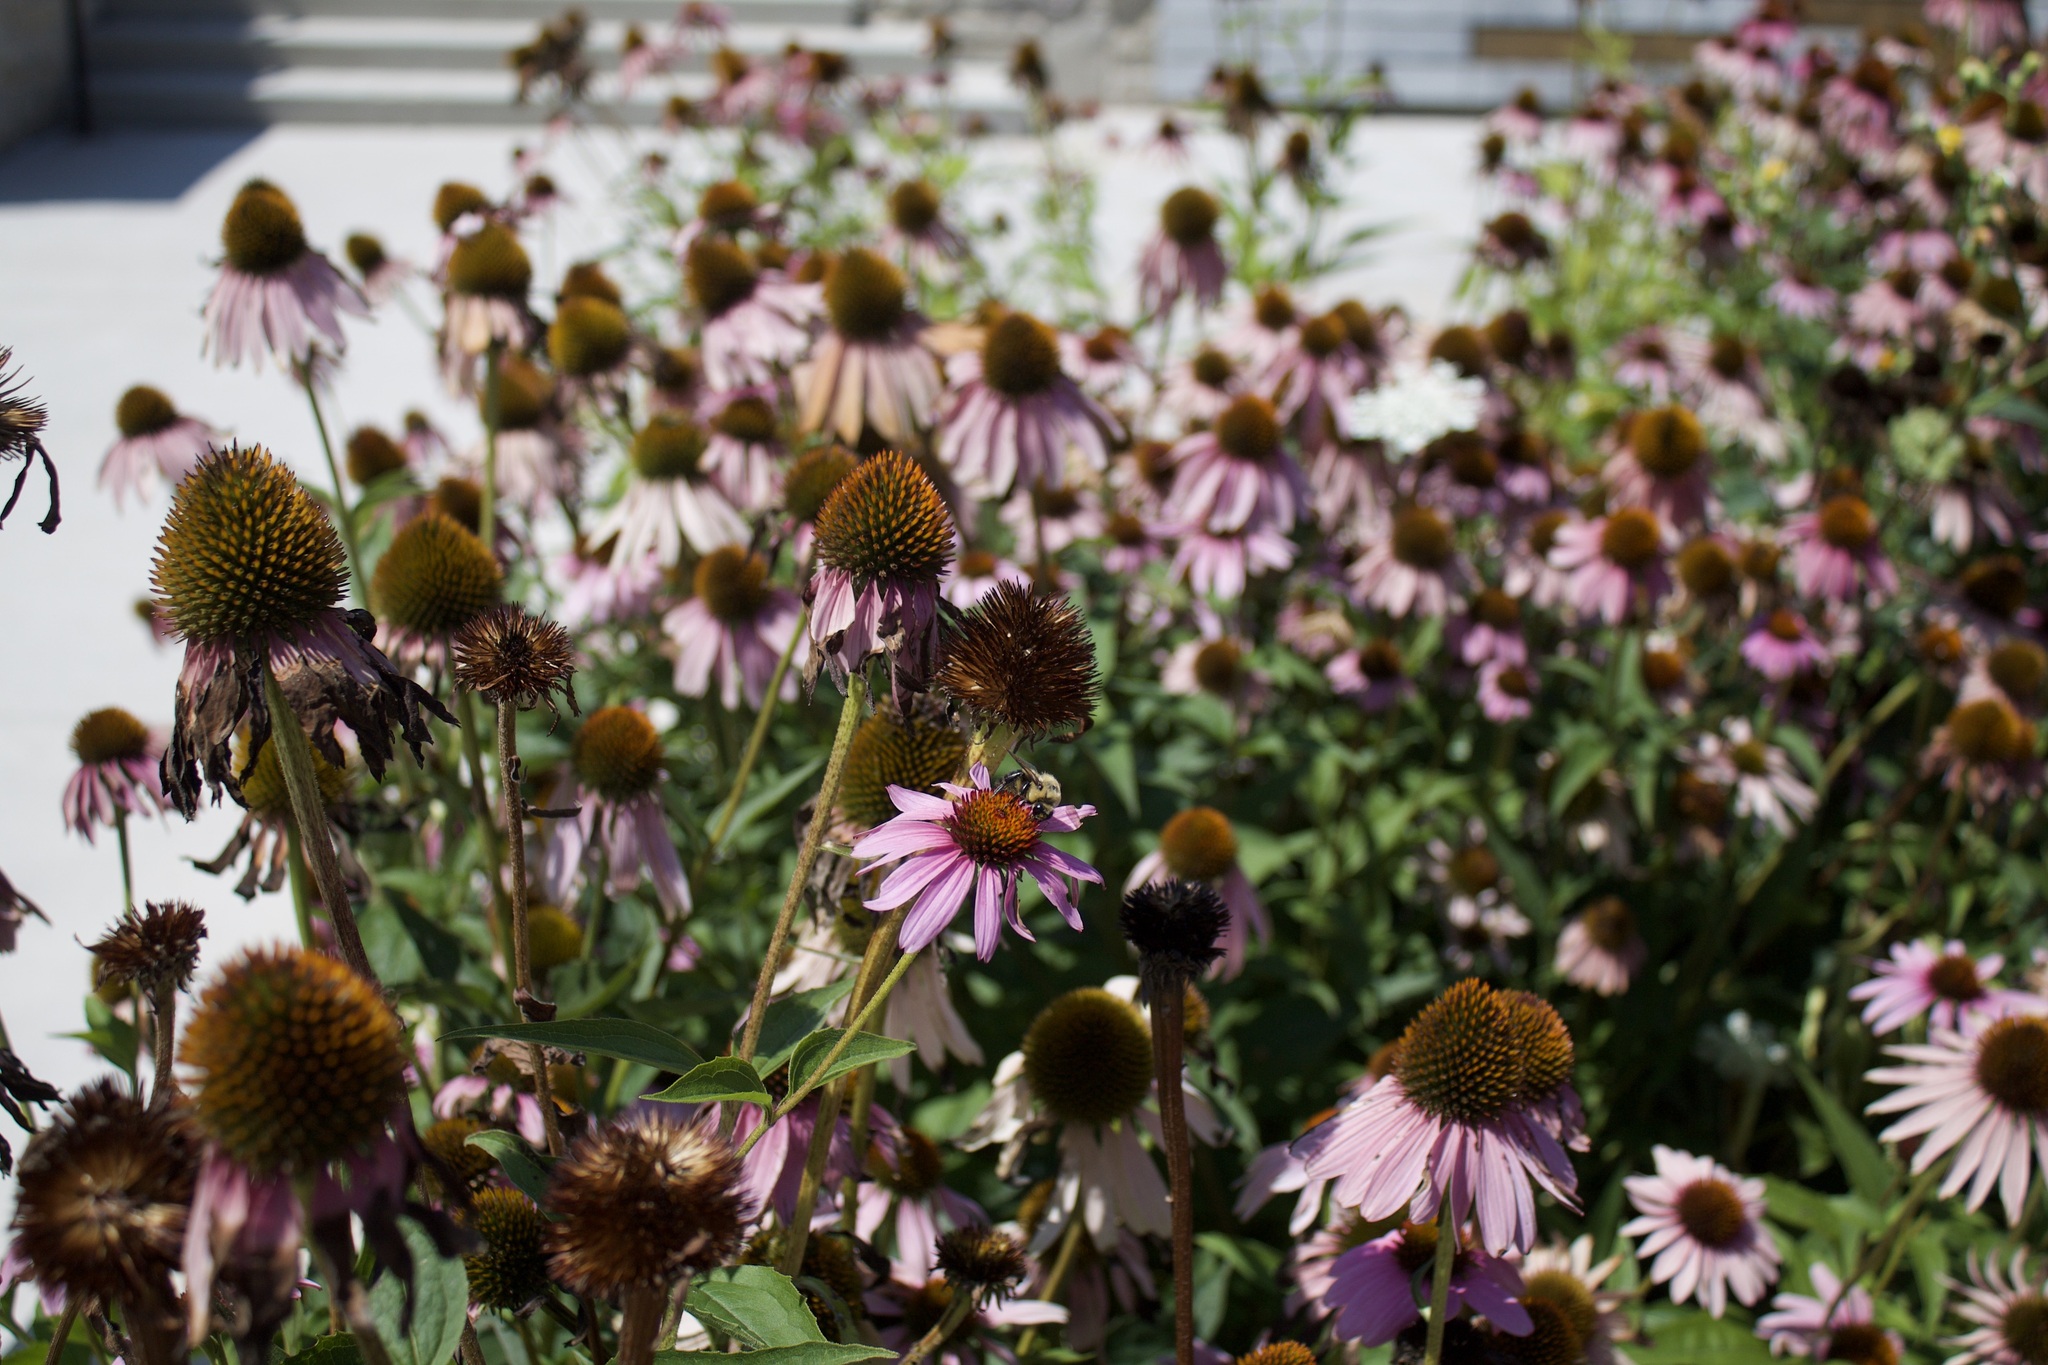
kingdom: Animalia
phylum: Arthropoda
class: Insecta
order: Hymenoptera
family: Apidae
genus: Bombus
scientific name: Bombus griseocollis
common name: Brown-belted bumble bee
